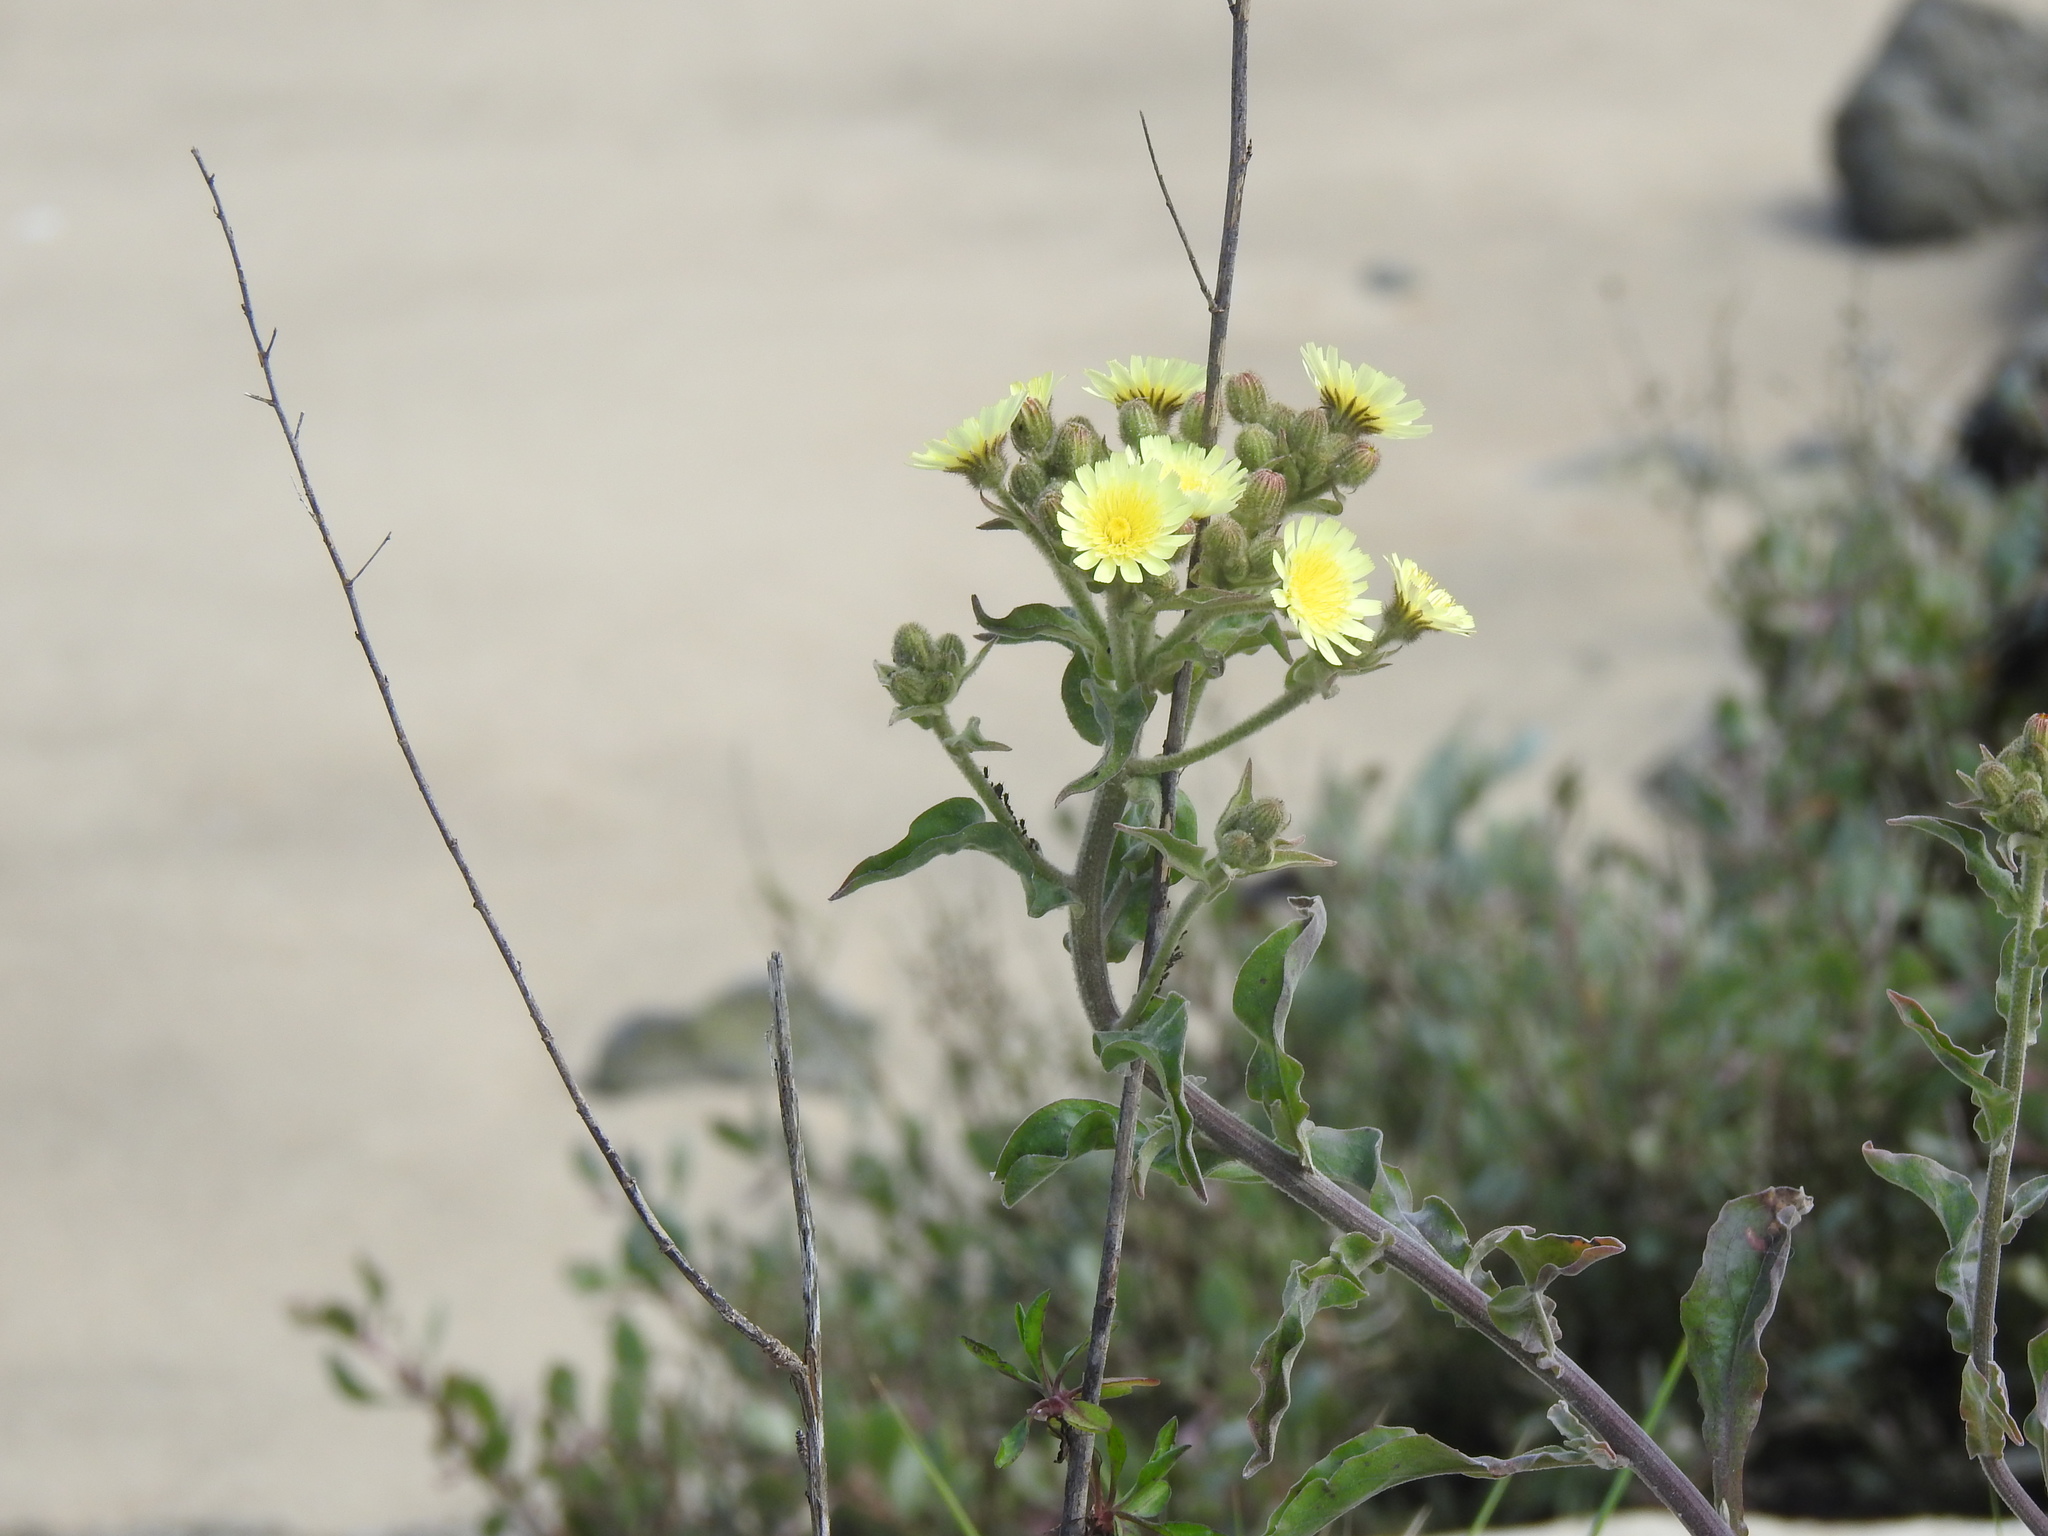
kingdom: Plantae
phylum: Tracheophyta
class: Magnoliopsida
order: Asterales
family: Asteraceae
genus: Andryala
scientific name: Andryala integrifolia
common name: Common andryala
